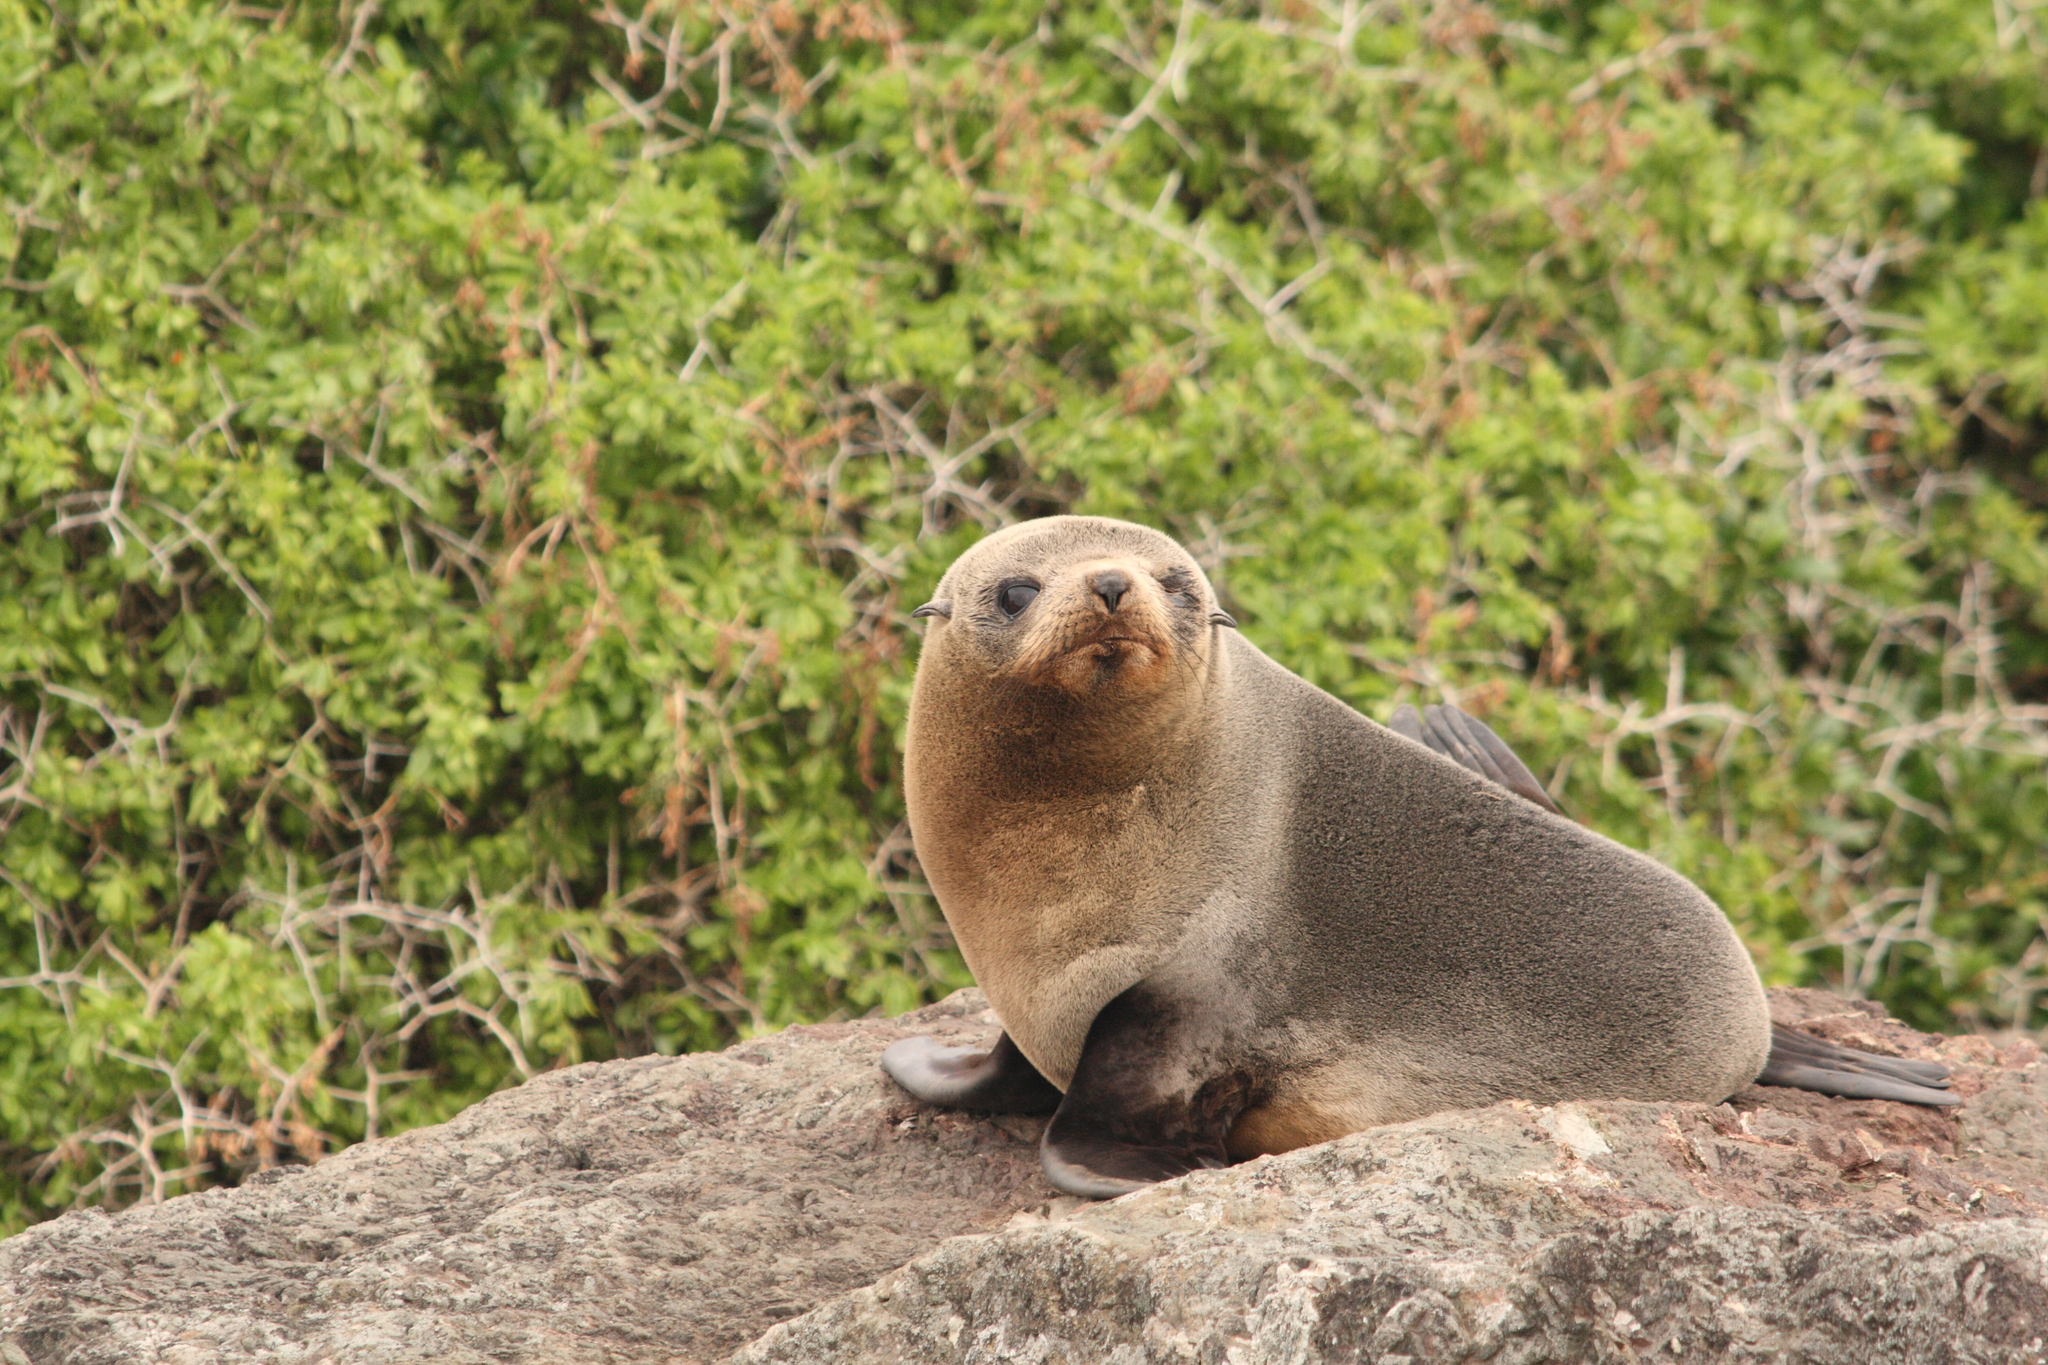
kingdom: Animalia
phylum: Chordata
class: Mammalia
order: Carnivora
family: Otariidae
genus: Arctocephalus
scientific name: Arctocephalus forsteri
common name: New zealand fur seal
